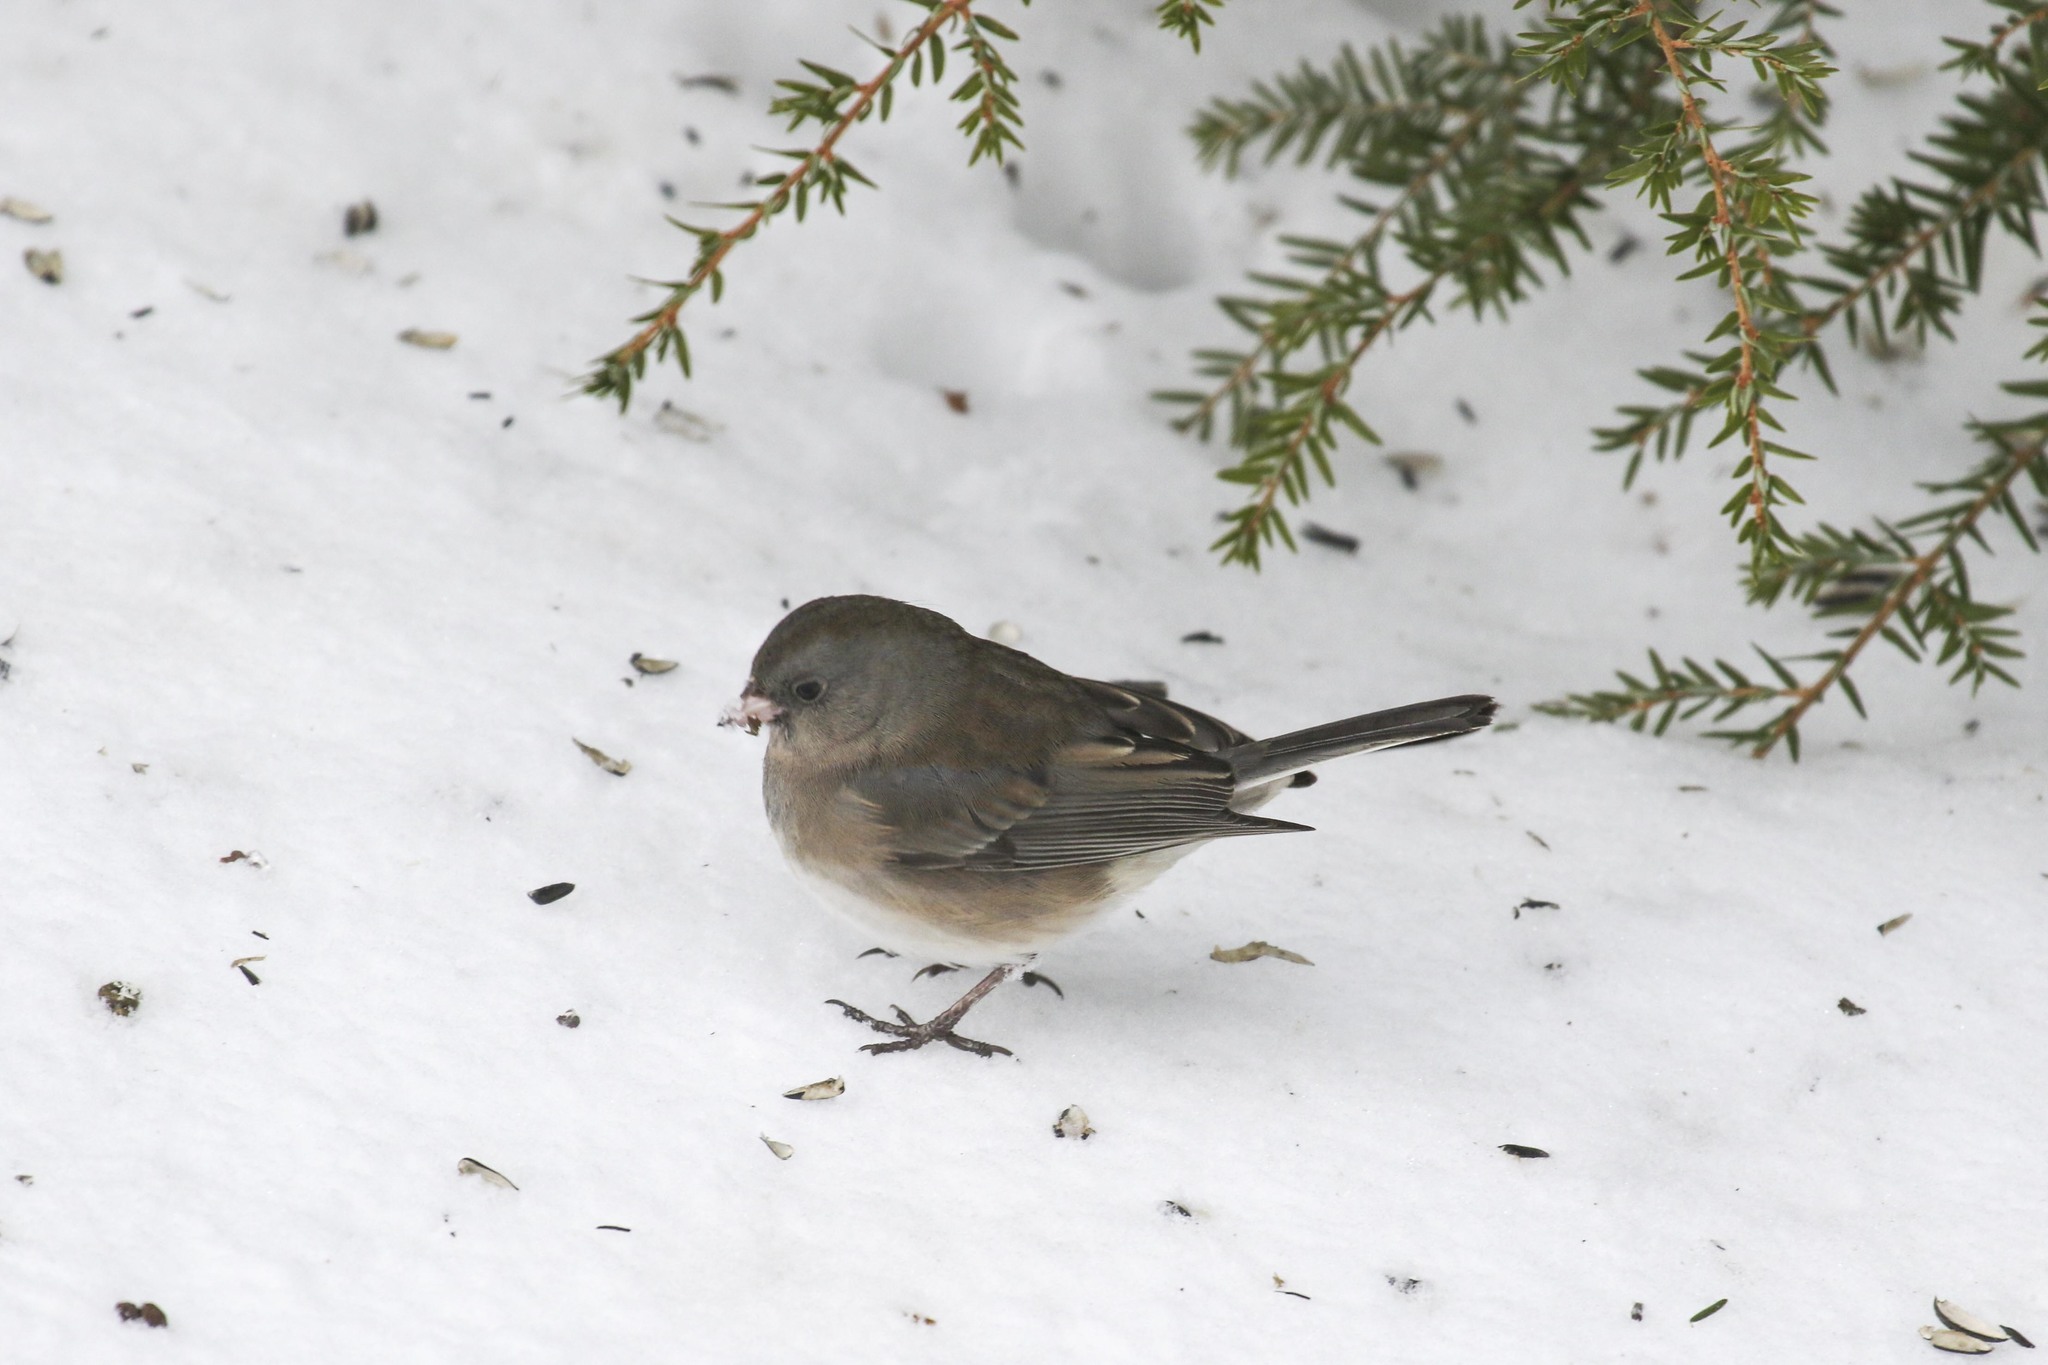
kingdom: Animalia
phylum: Chordata
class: Aves
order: Passeriformes
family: Passerellidae
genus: Junco
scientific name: Junco hyemalis
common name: Dark-eyed junco
